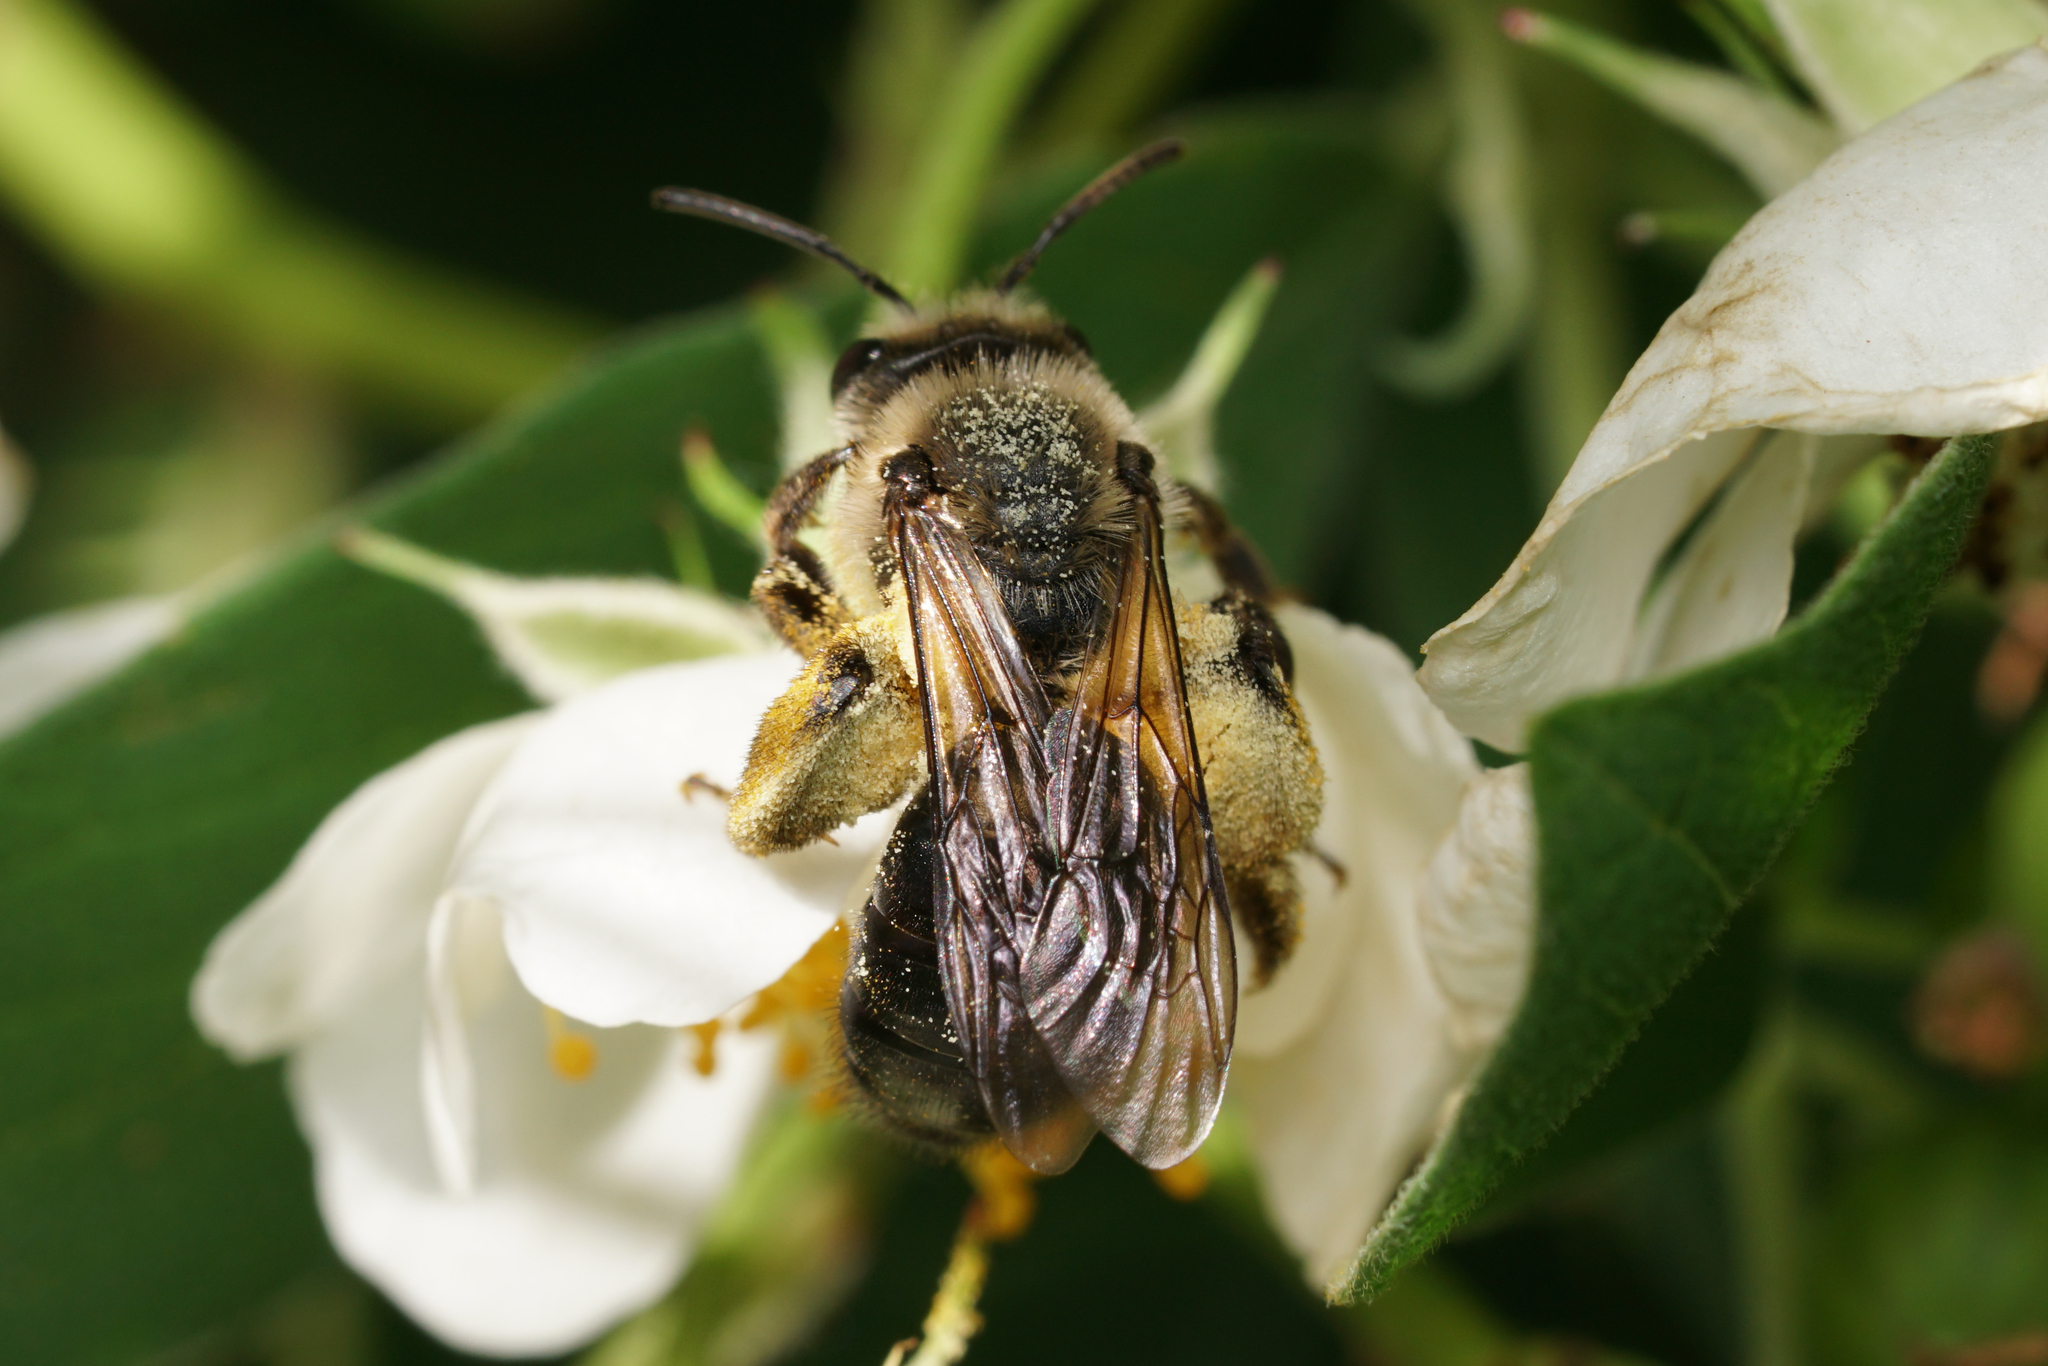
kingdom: Animalia
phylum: Arthropoda
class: Insecta
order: Hymenoptera
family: Andrenidae
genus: Andrena
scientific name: Andrena
